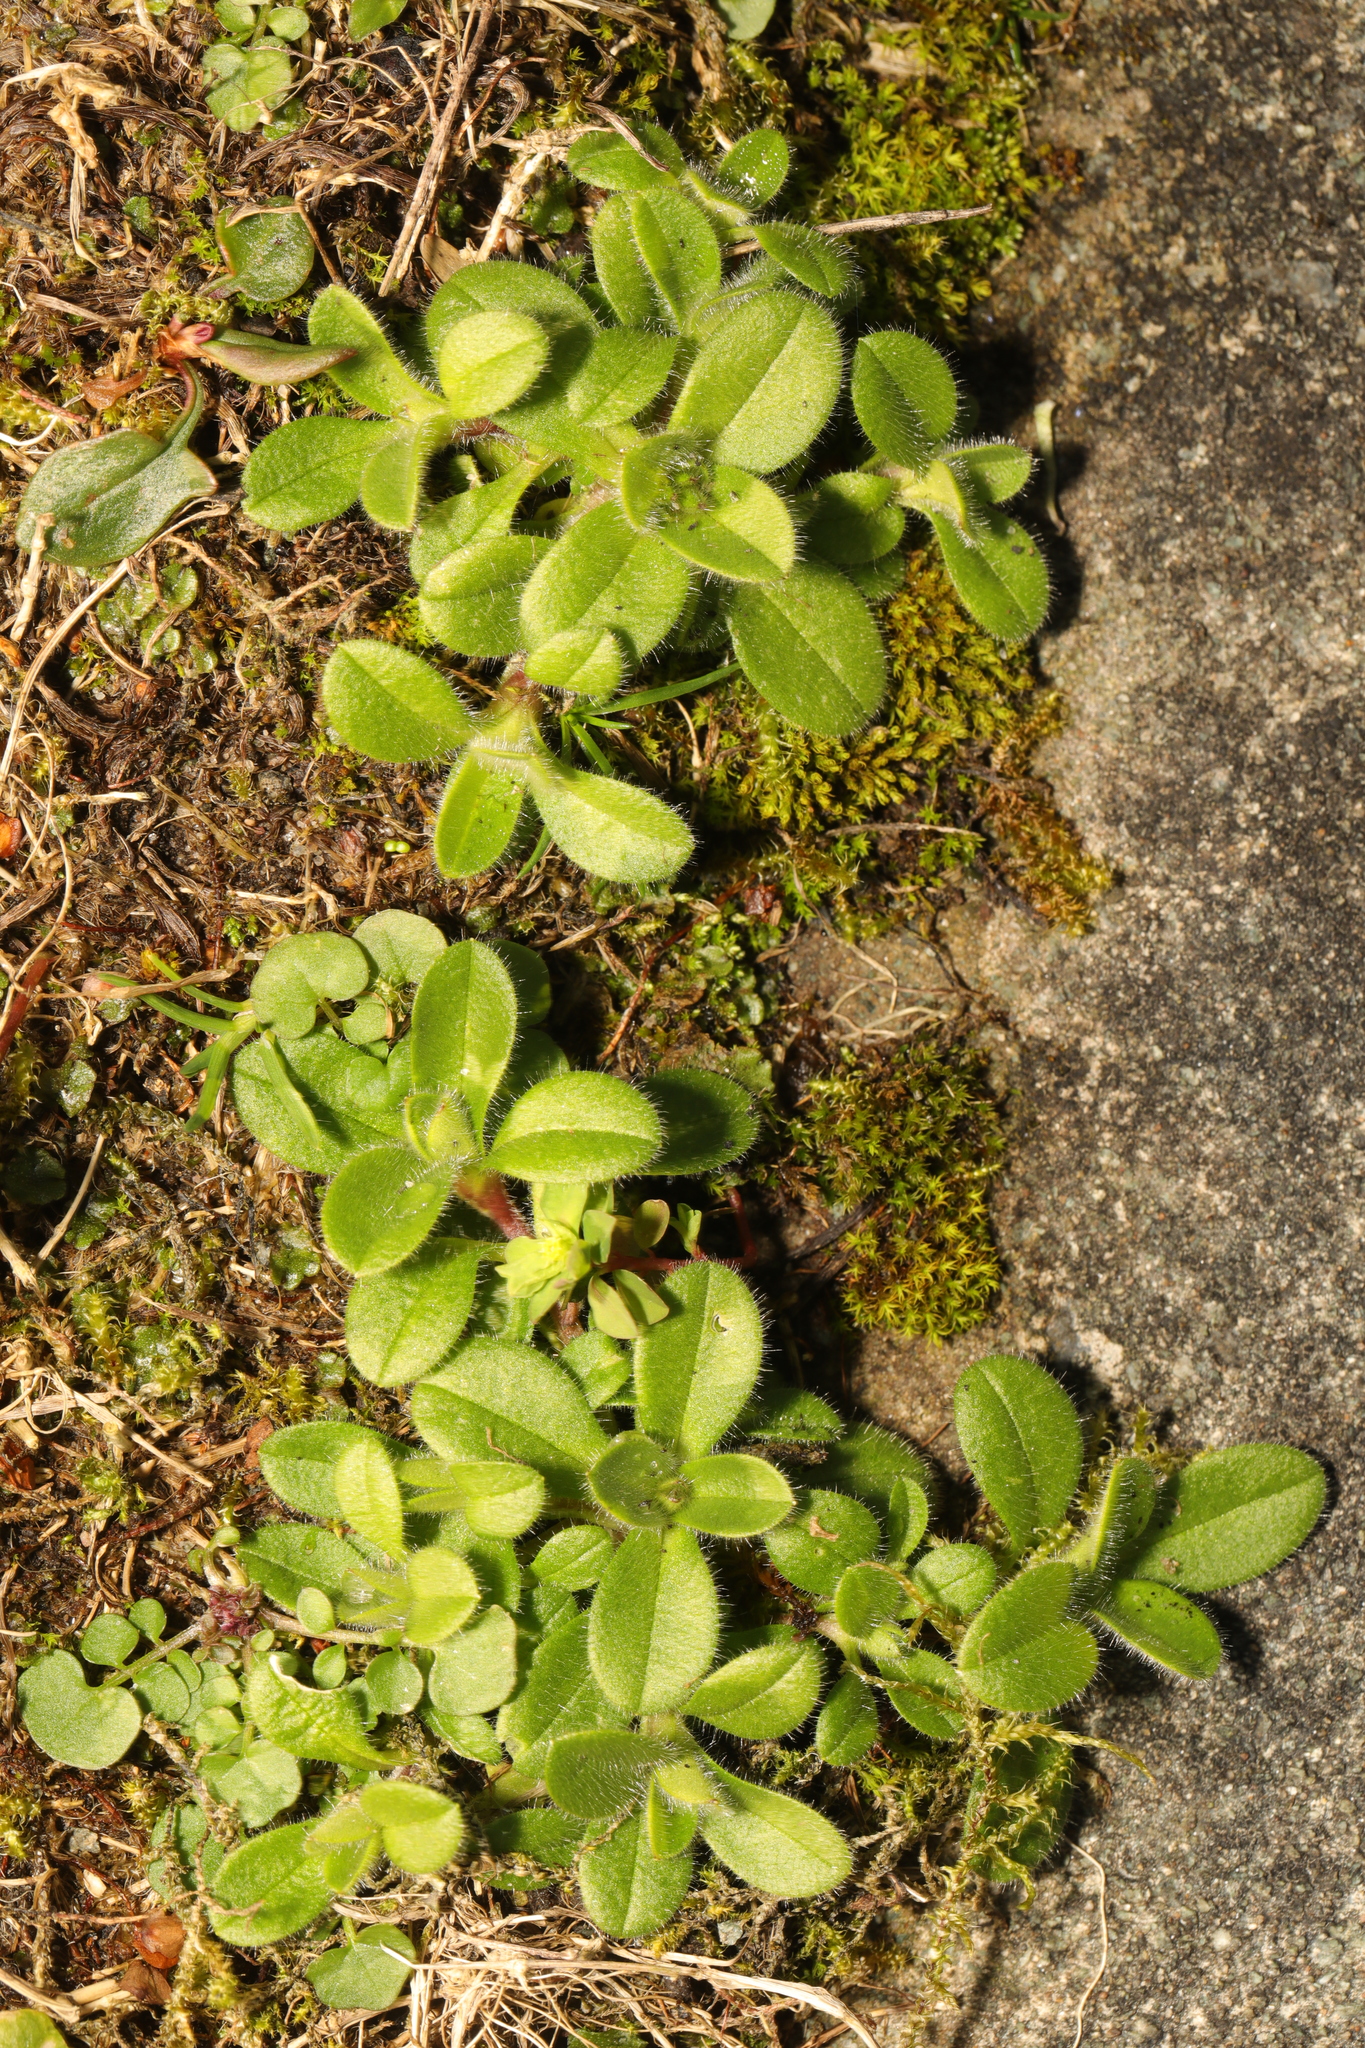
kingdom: Plantae
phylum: Tracheophyta
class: Magnoliopsida
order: Caryophyllales
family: Caryophyllaceae
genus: Cerastium
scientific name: Cerastium glomeratum
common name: Sticky chickweed
